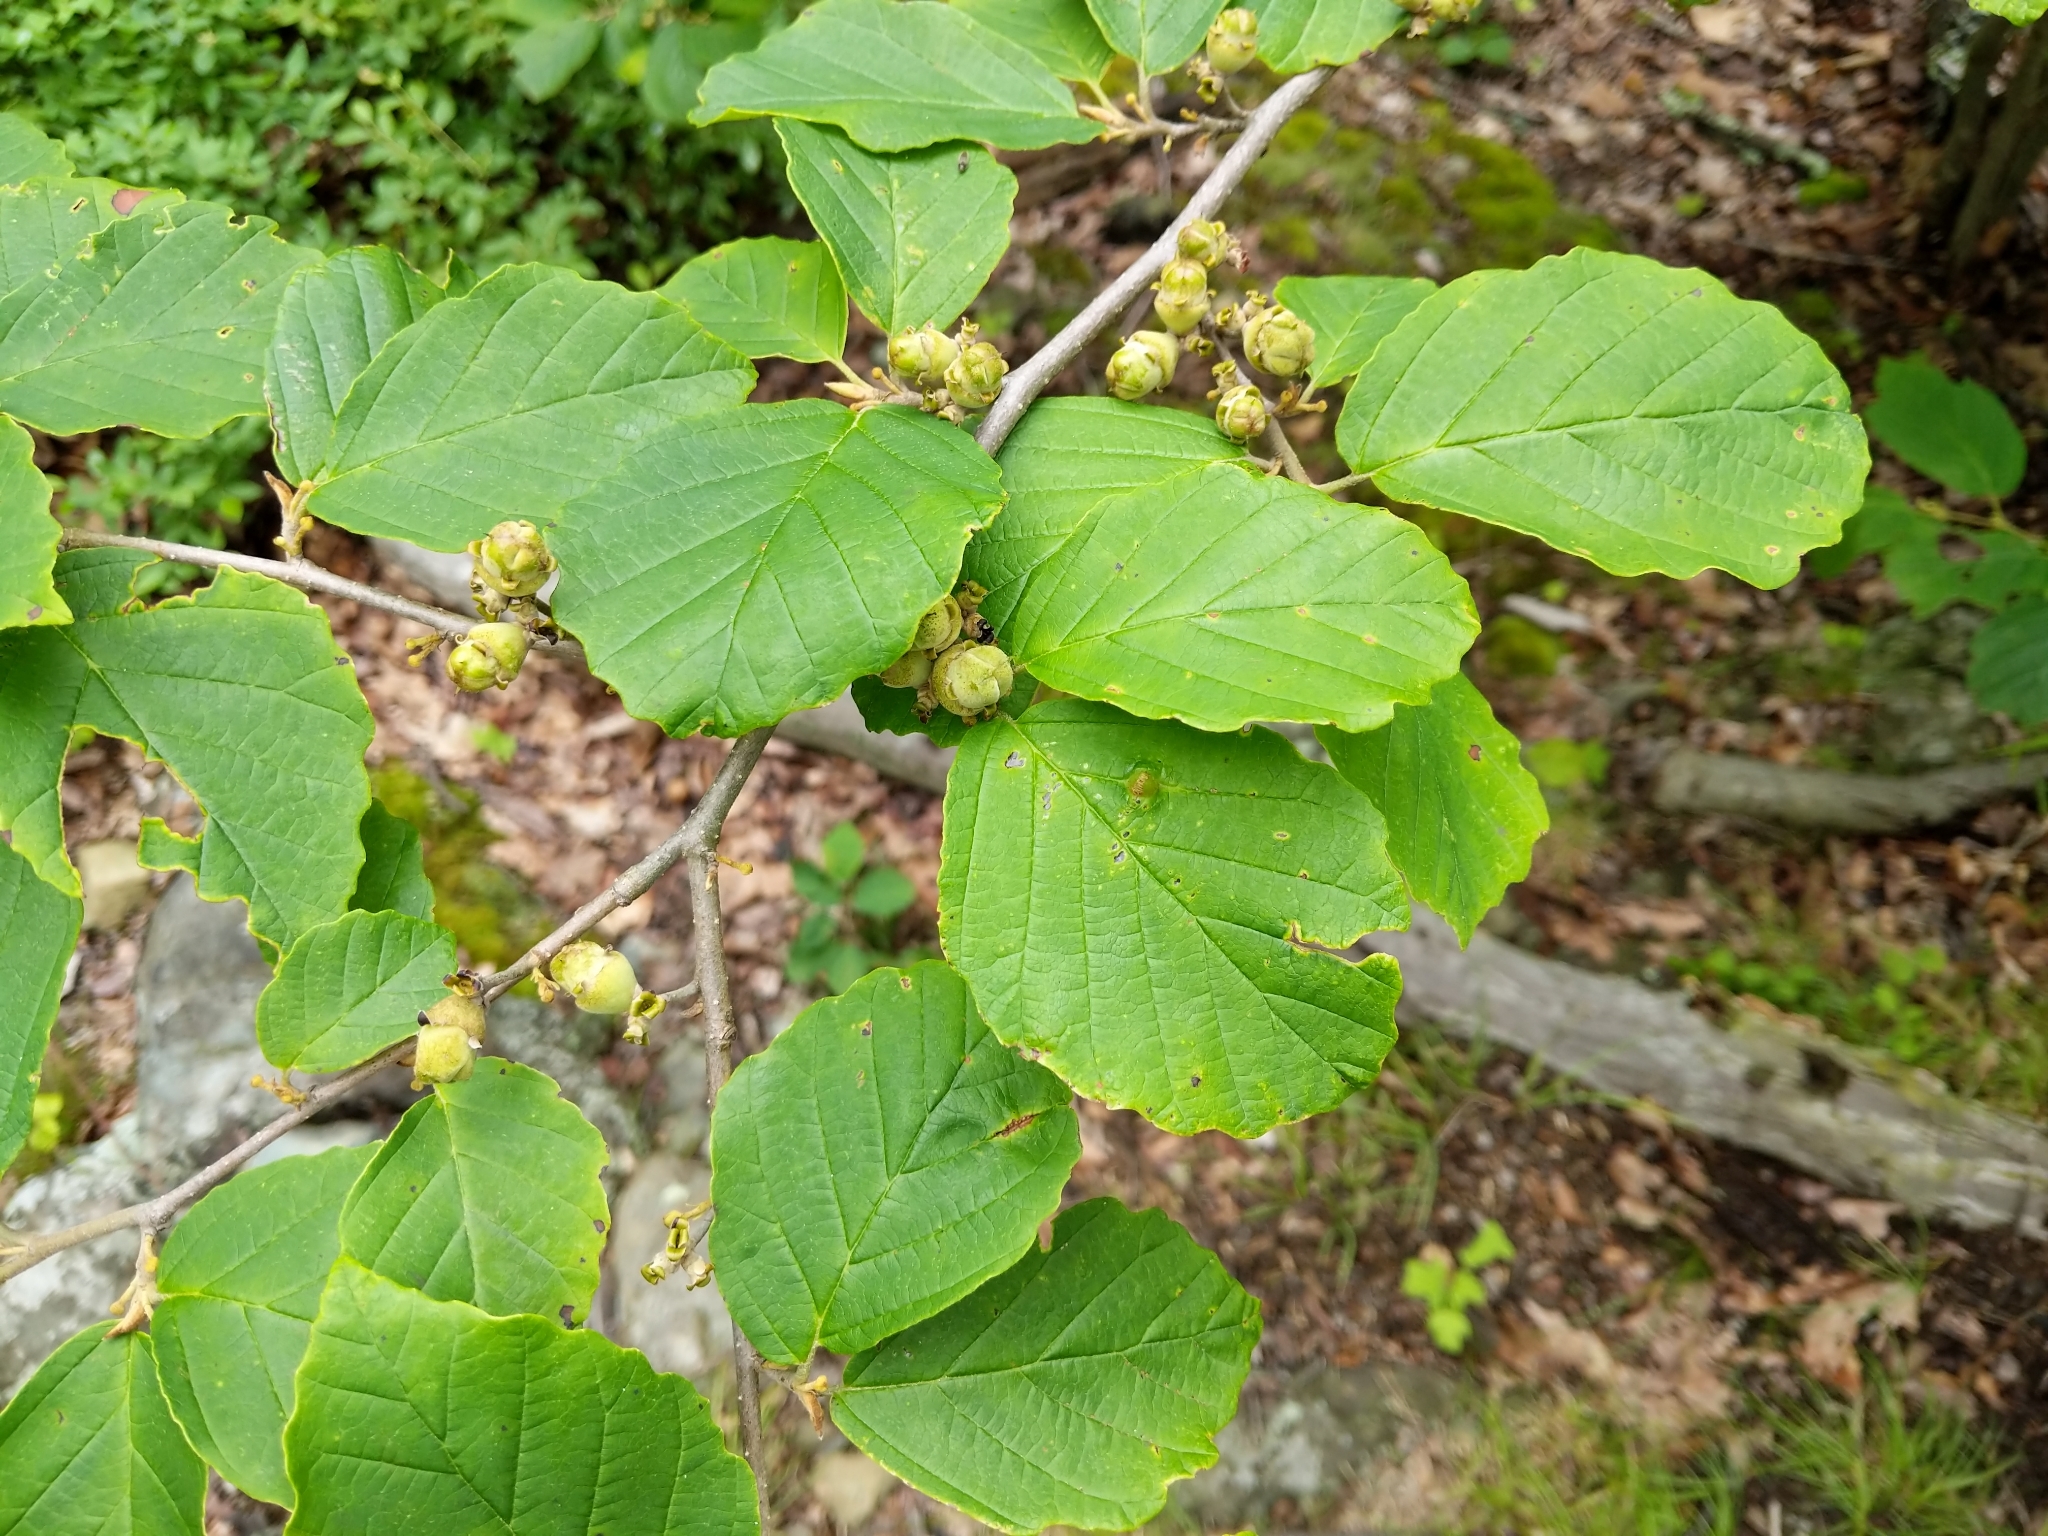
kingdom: Plantae
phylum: Tracheophyta
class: Magnoliopsida
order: Saxifragales
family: Hamamelidaceae
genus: Hamamelis
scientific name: Hamamelis virginiana
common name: Witch-hazel
